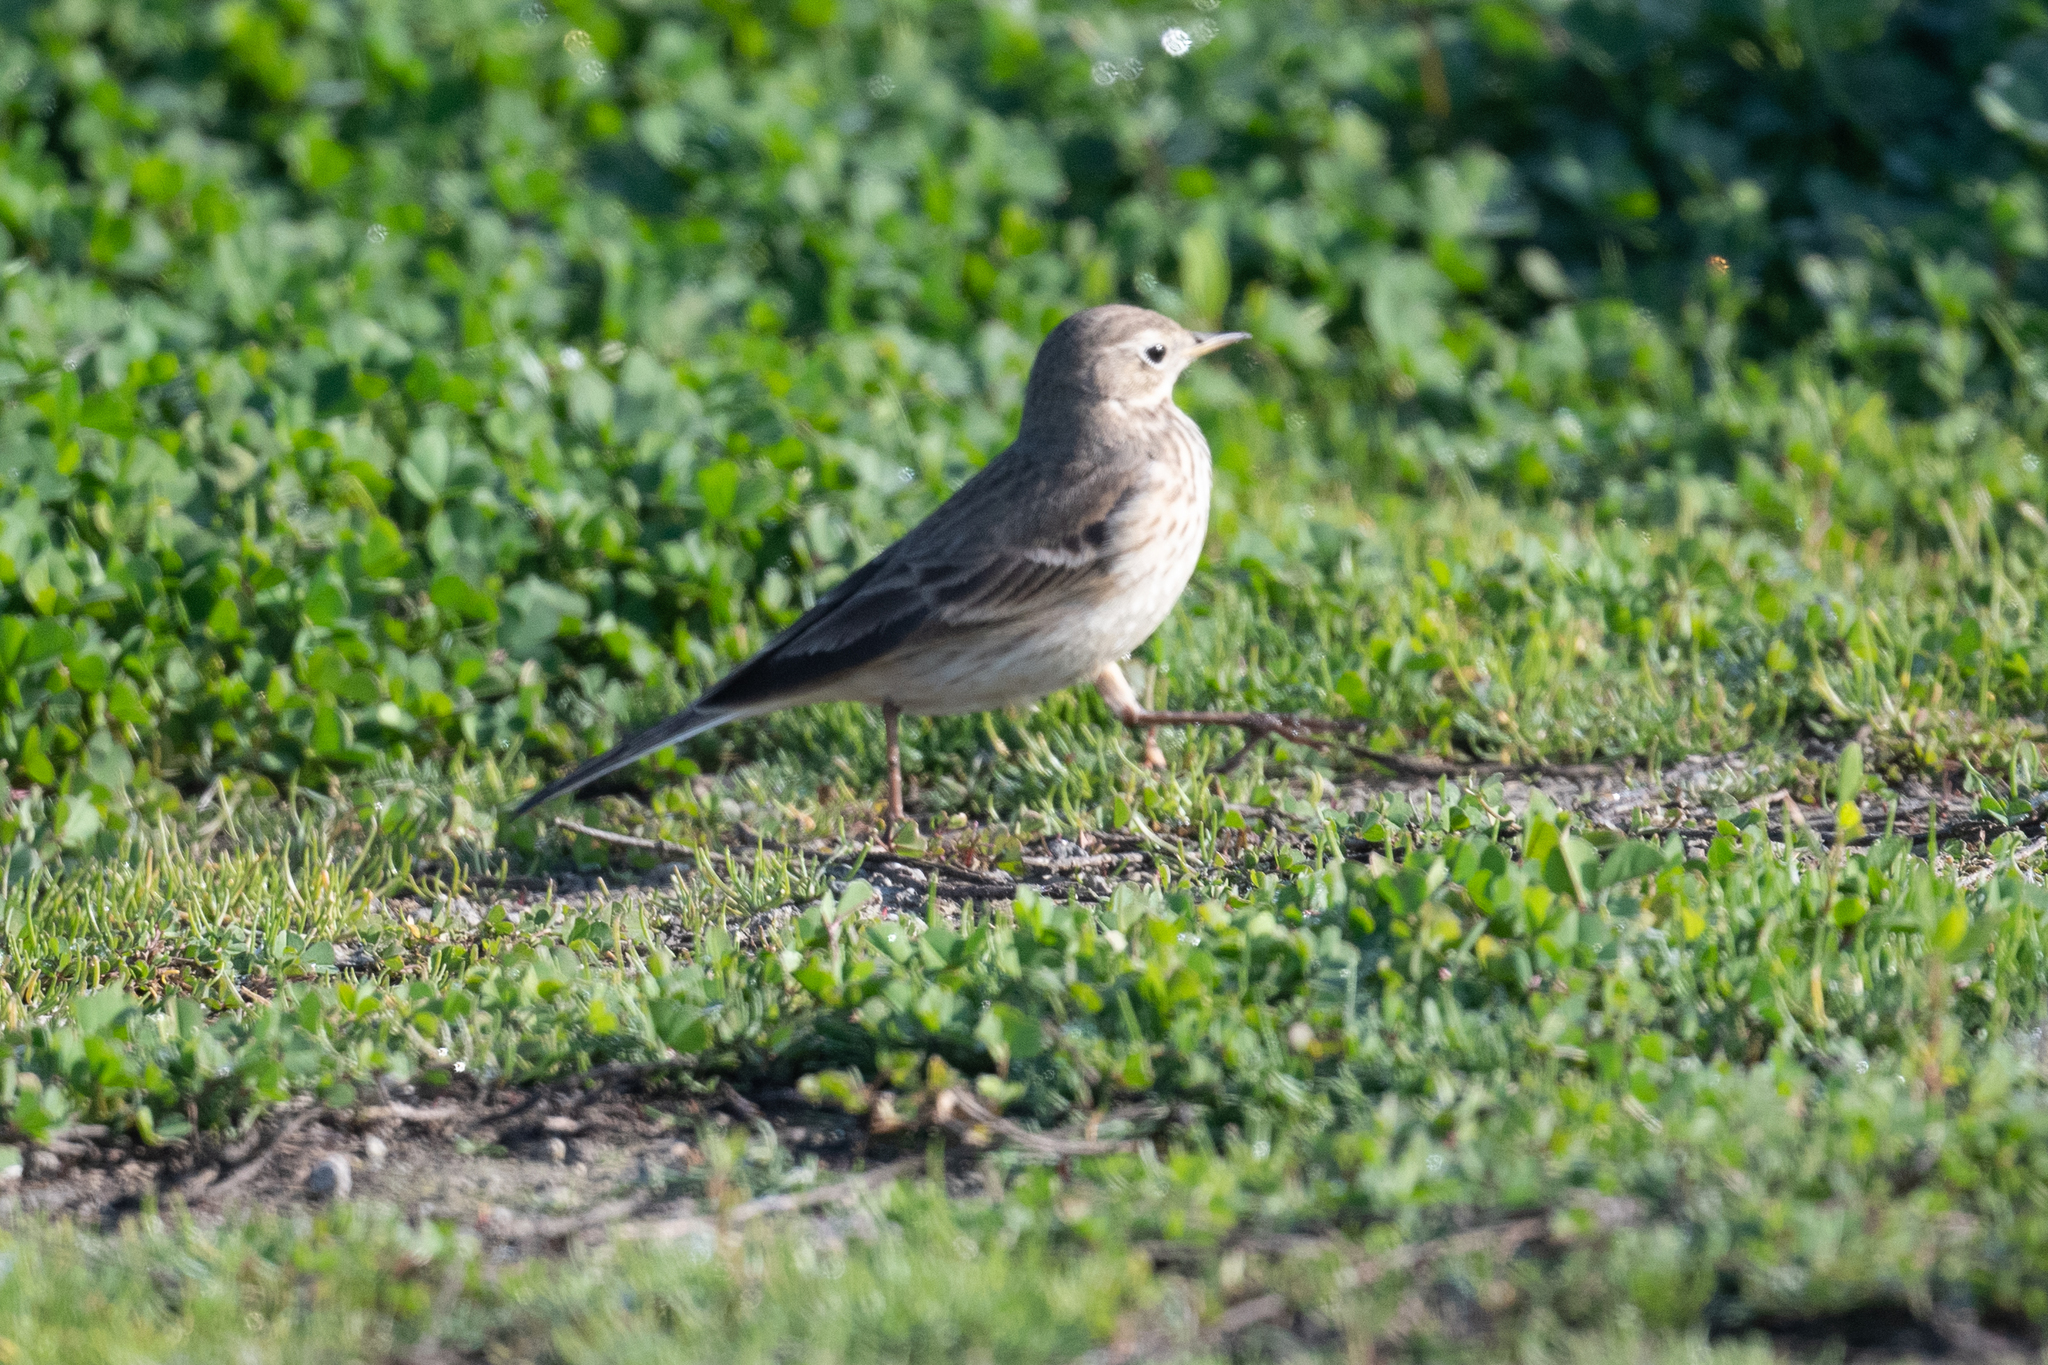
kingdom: Animalia
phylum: Chordata
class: Aves
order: Passeriformes
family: Motacillidae
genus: Anthus
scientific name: Anthus rubescens
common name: Buff-bellied pipit
